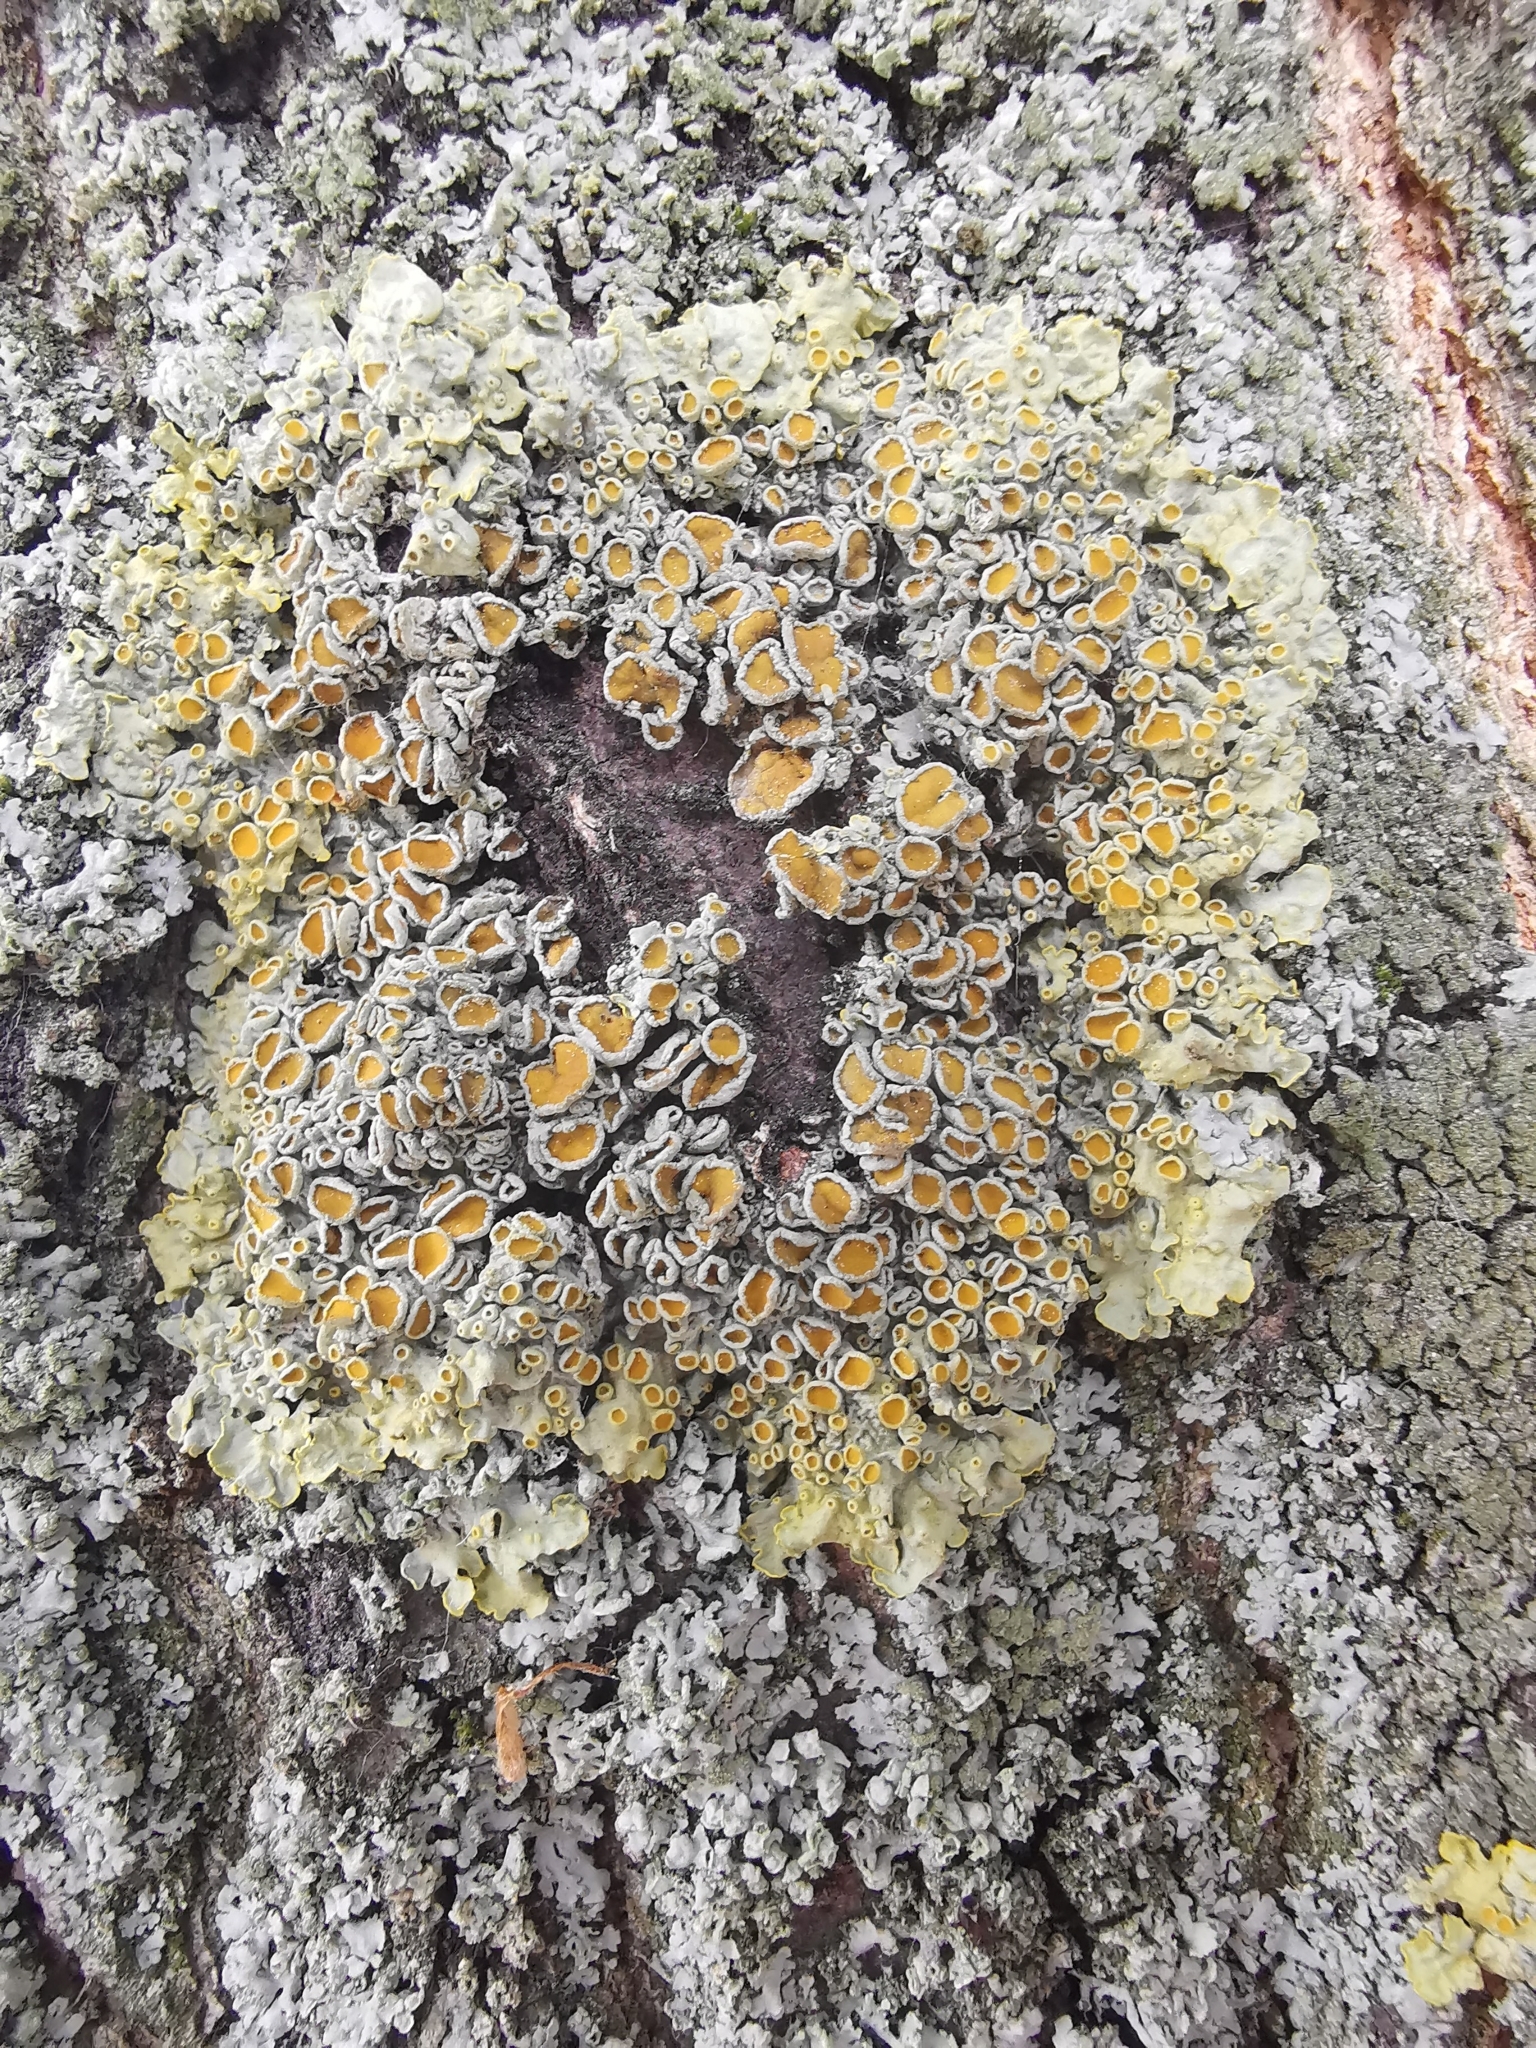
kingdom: Fungi
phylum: Ascomycota
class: Lecanoromycetes
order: Teloschistales
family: Teloschistaceae
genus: Xanthoria
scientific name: Xanthoria parietina
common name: Common orange lichen
